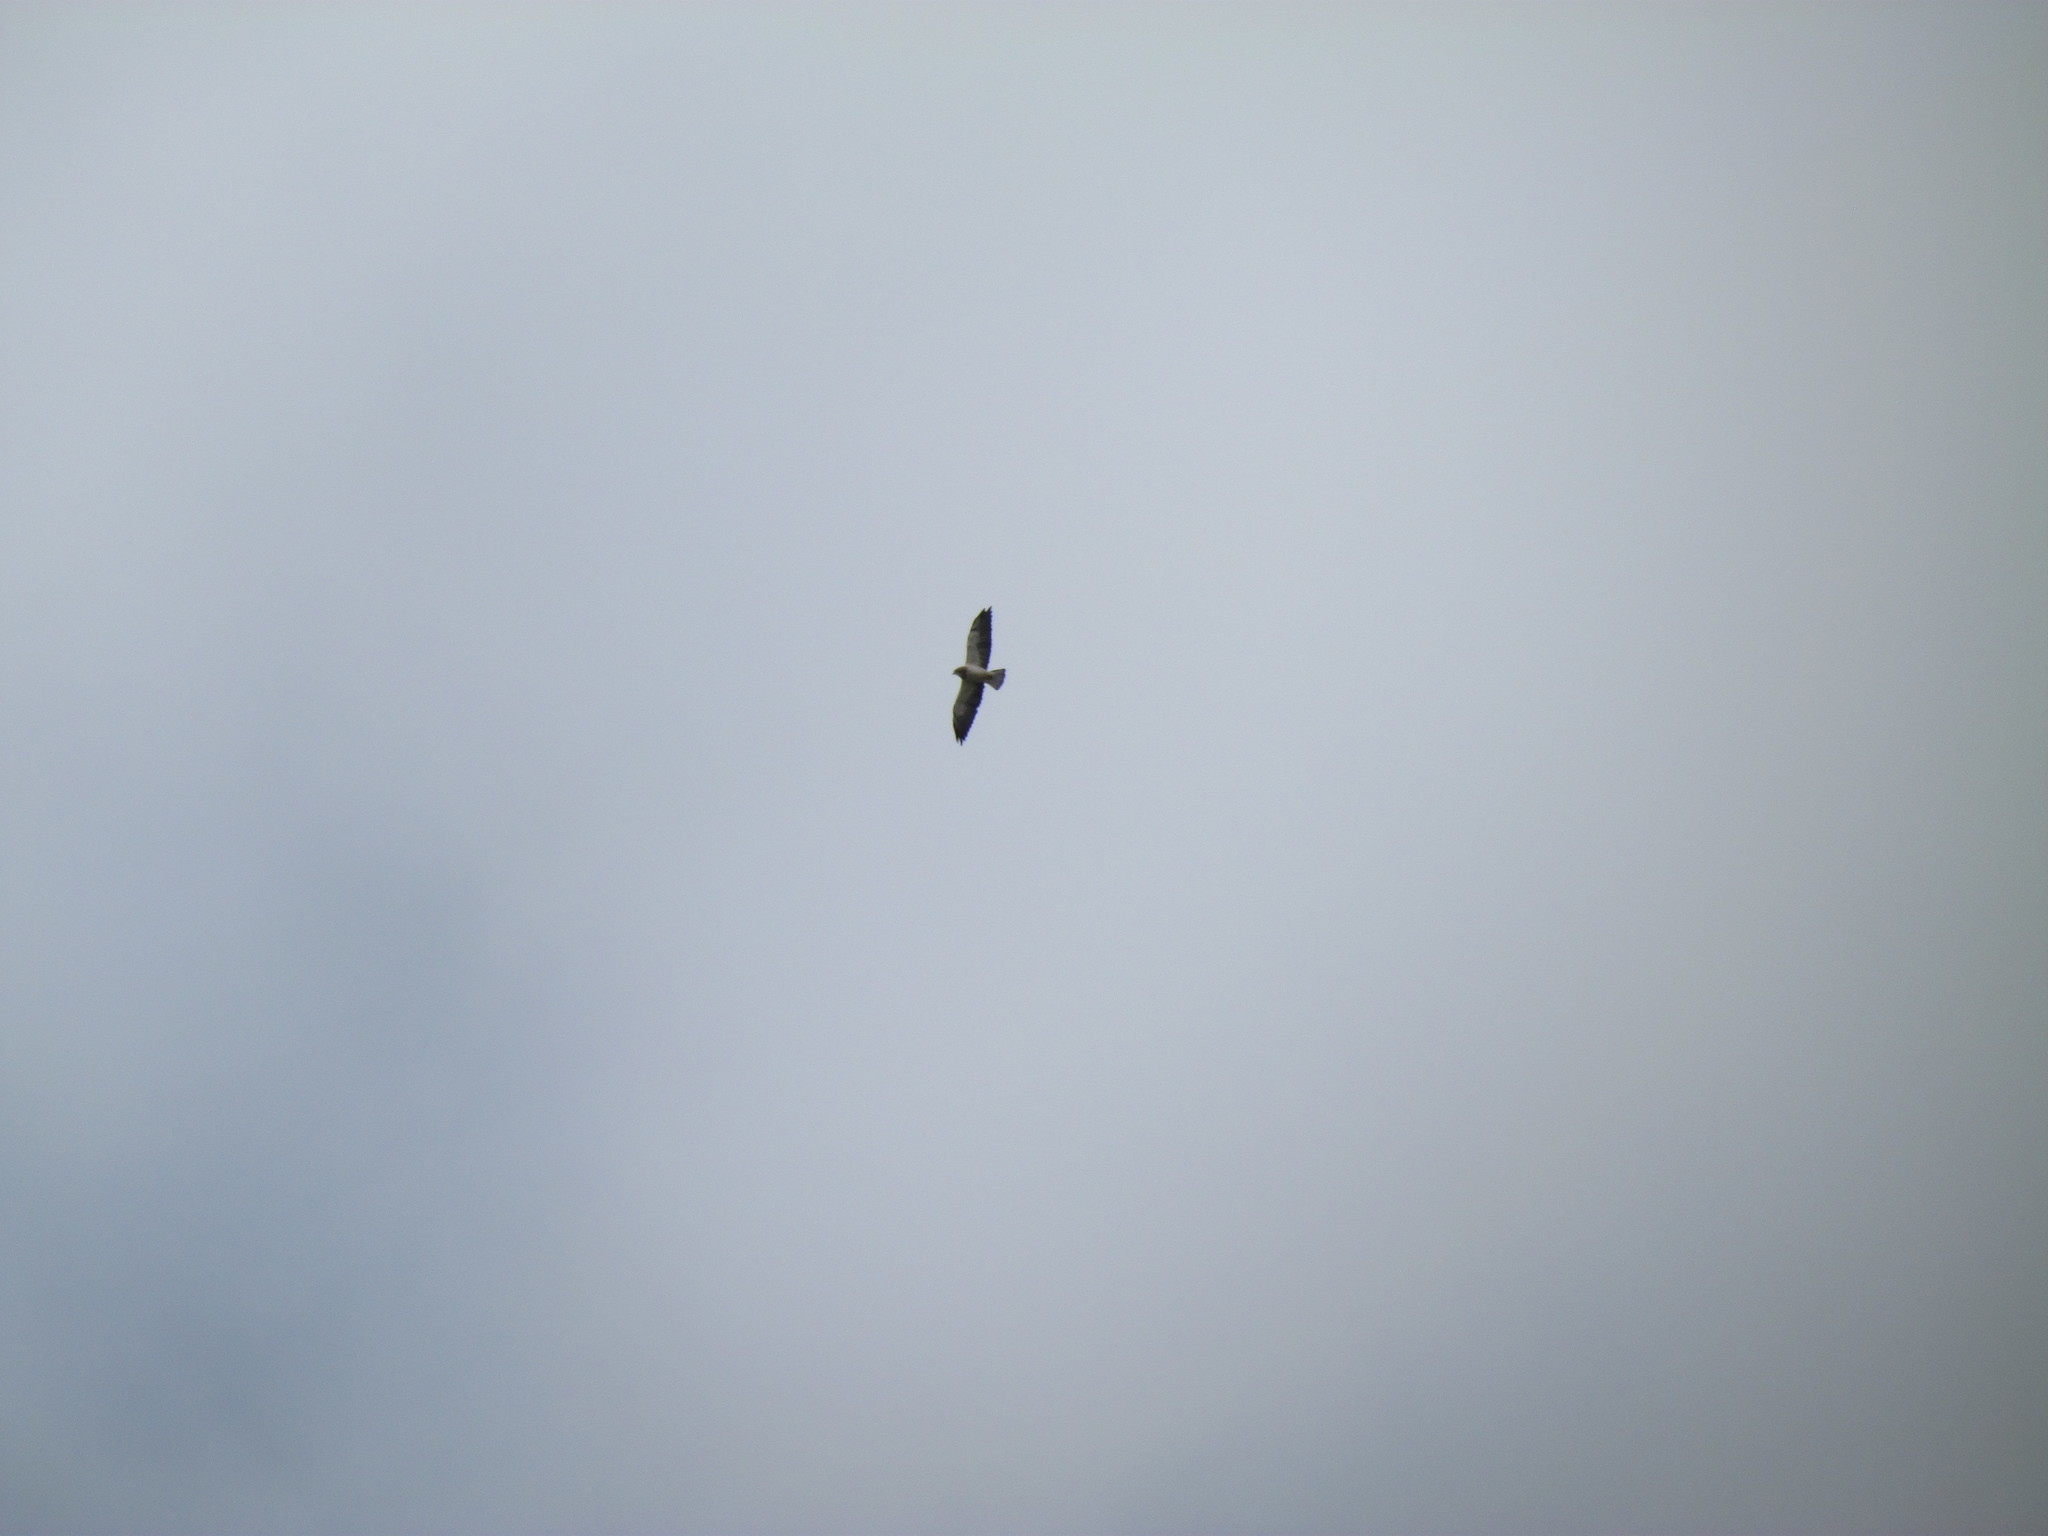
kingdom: Animalia
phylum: Chordata
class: Aves
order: Accipitriformes
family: Accipitridae
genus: Buteo
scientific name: Buteo swainsoni
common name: Swainson's hawk
